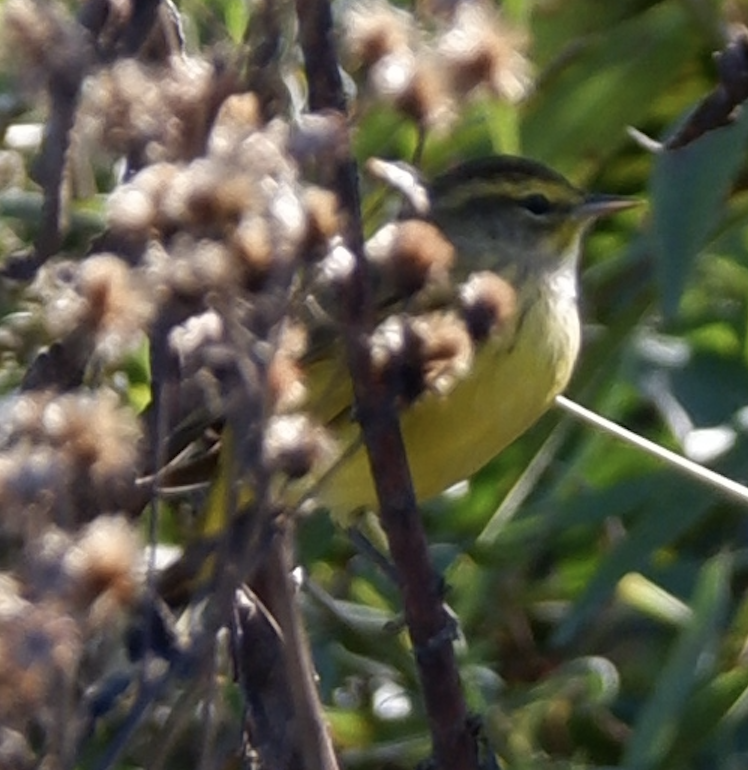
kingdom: Animalia
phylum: Chordata
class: Aves
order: Passeriformes
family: Parulidae
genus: Setophaga
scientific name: Setophaga palmarum
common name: Palm warbler
